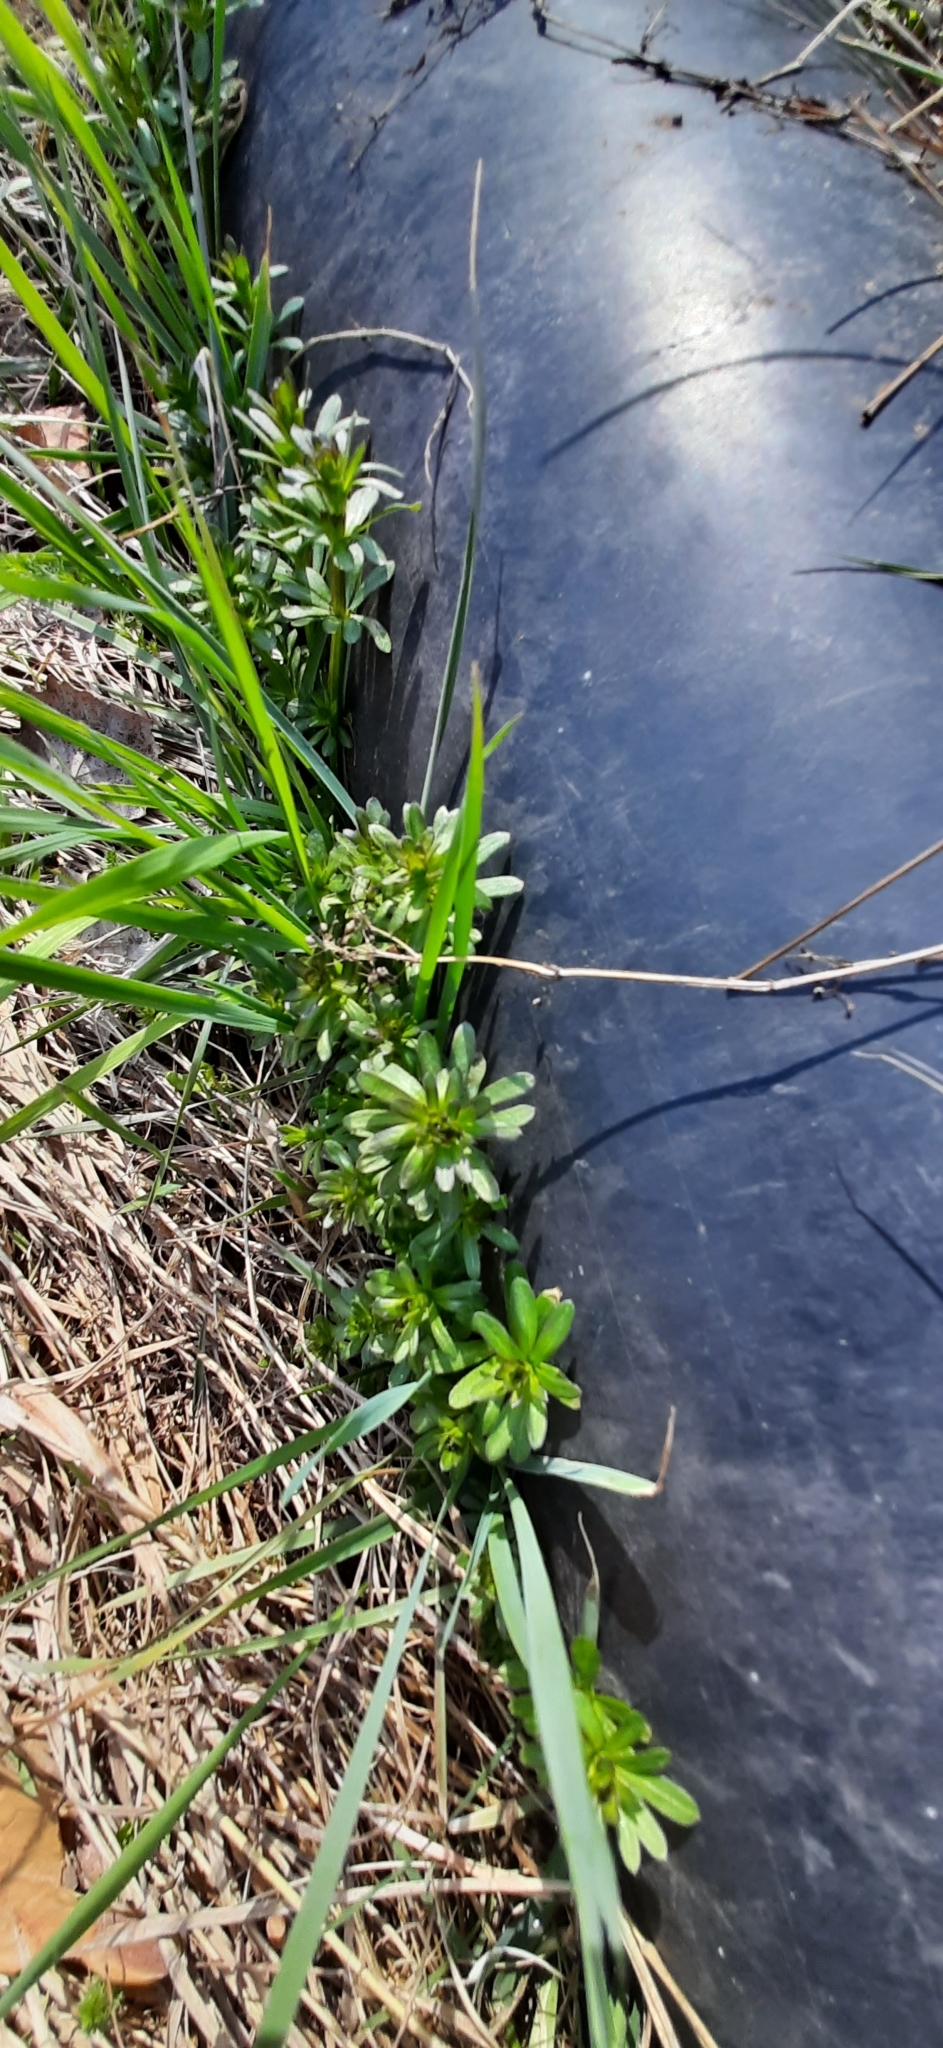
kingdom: Plantae
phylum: Tracheophyta
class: Magnoliopsida
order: Gentianales
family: Rubiaceae
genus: Galium
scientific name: Galium mollugo
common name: Hedge bedstraw
